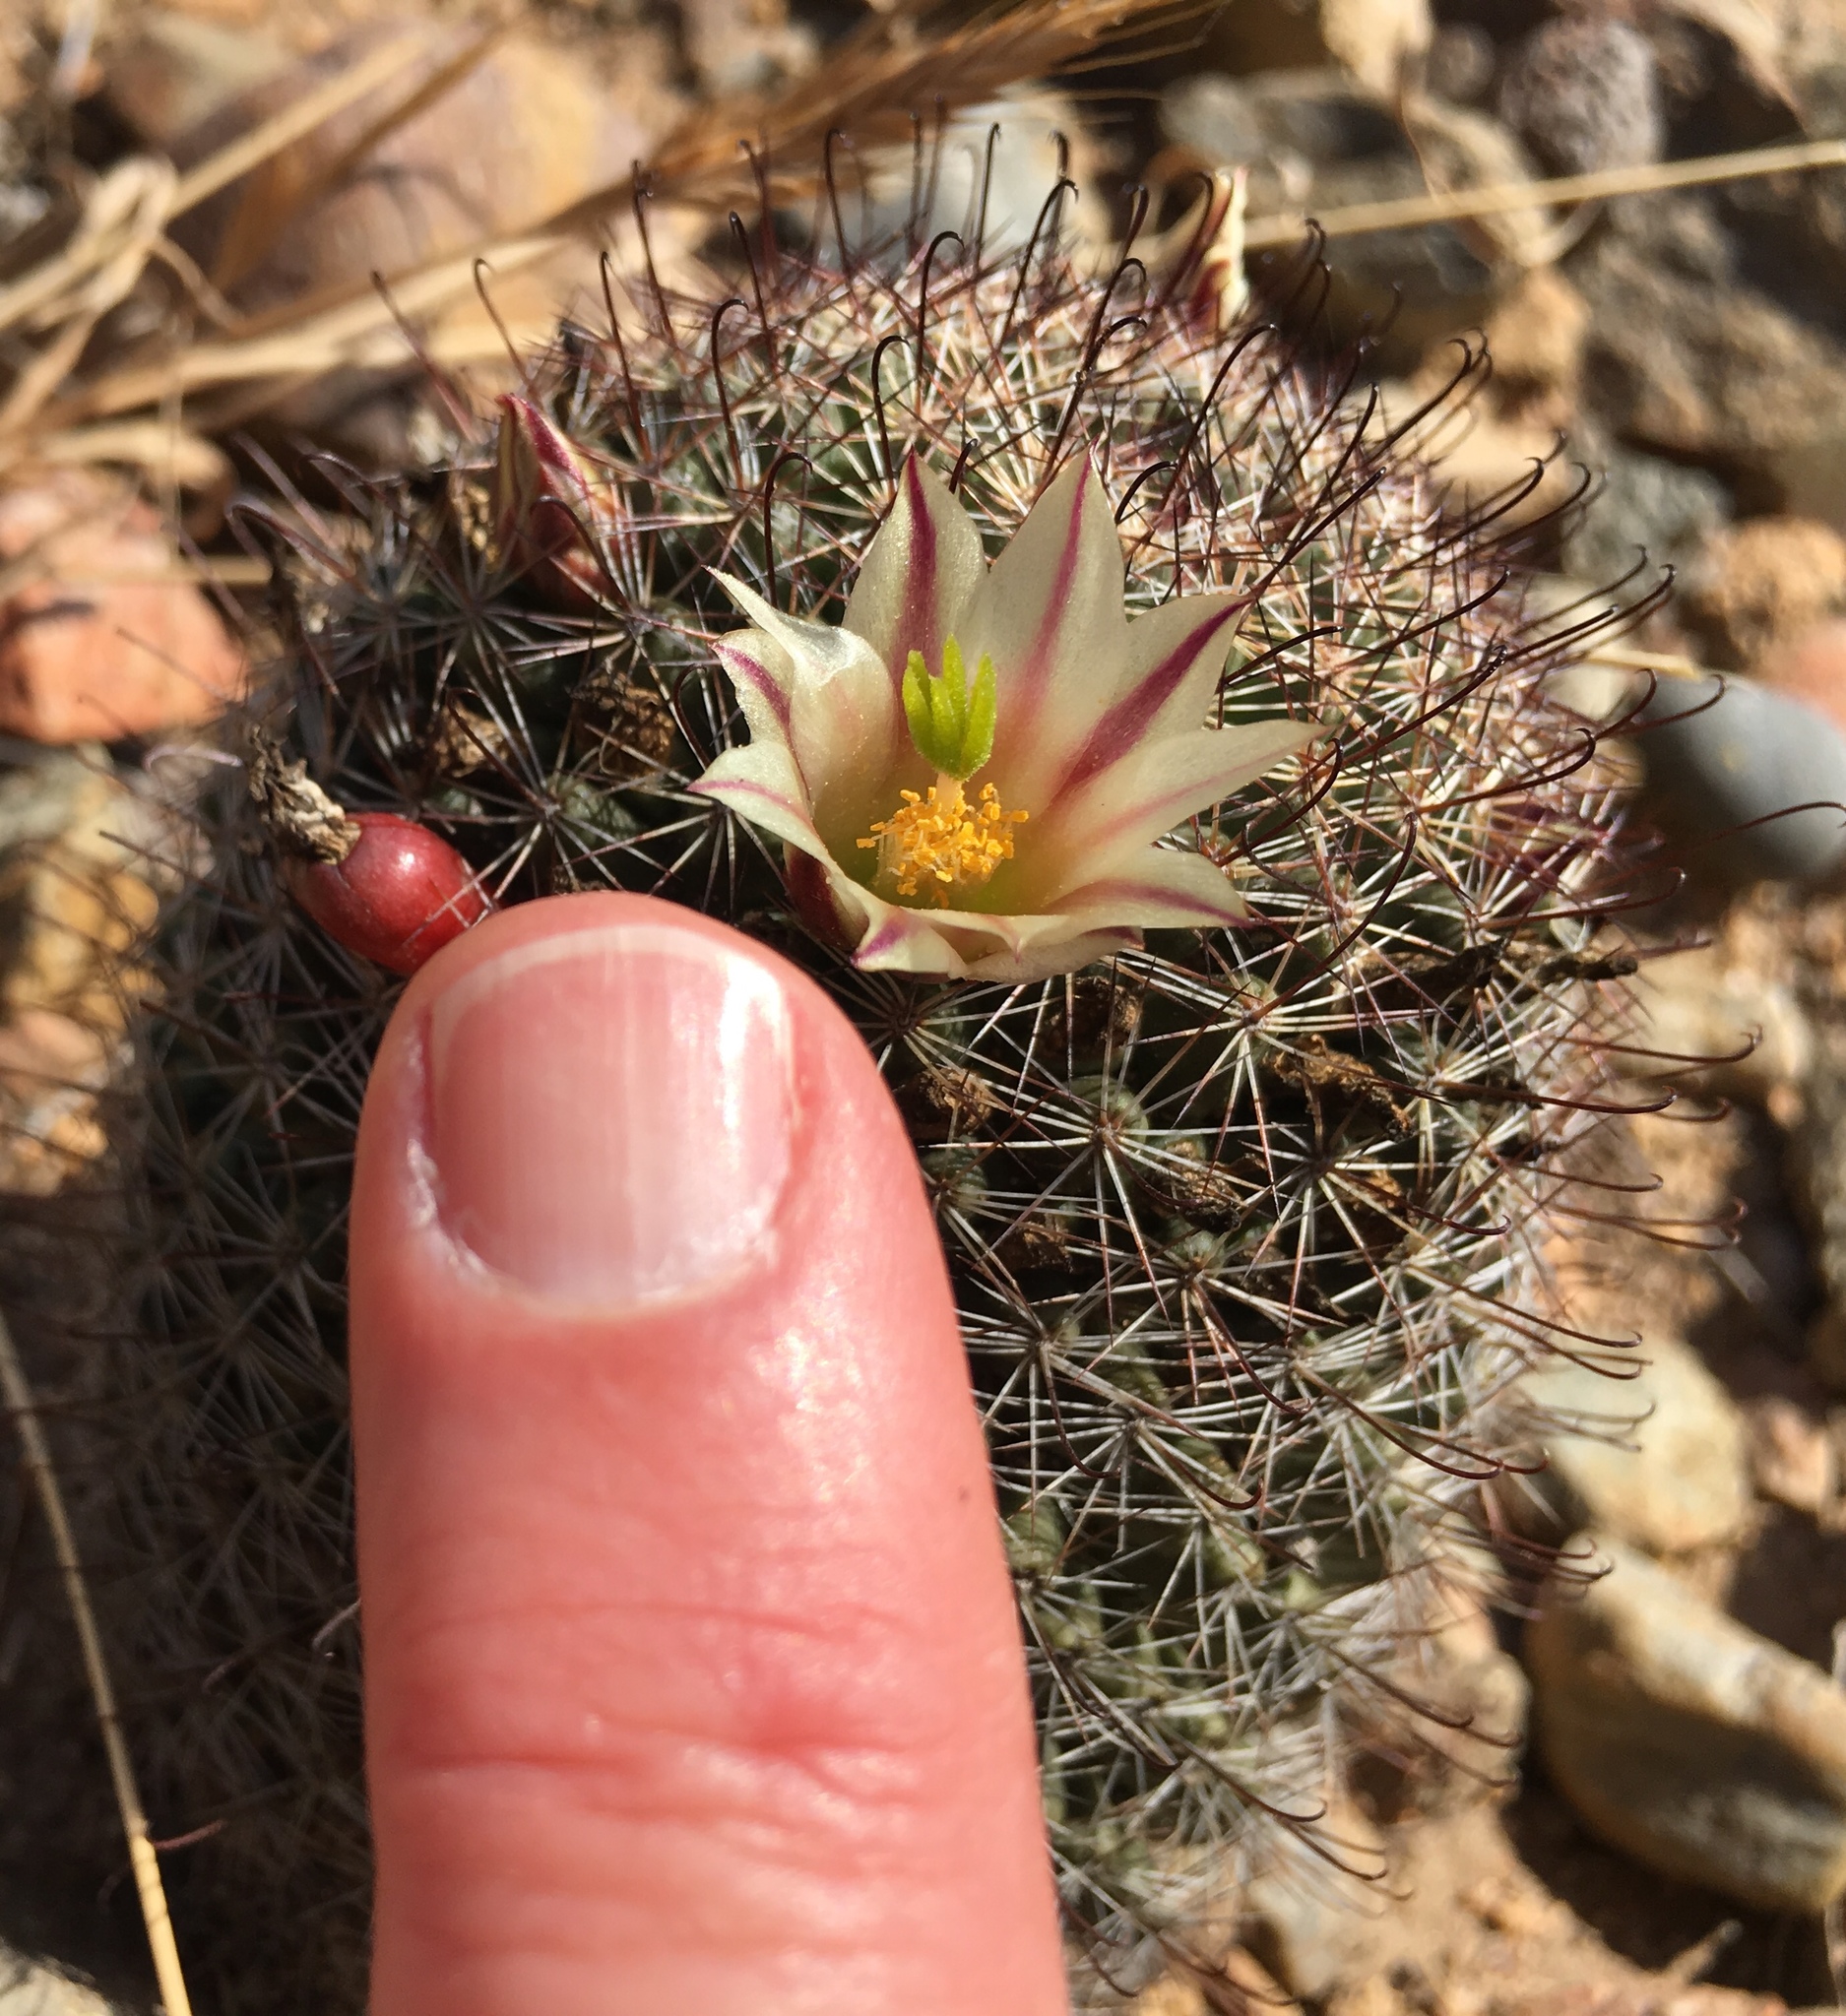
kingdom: Plantae
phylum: Tracheophyta
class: Magnoliopsida
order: Caryophyllales
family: Cactaceae
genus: Cochemiea
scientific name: Cochemiea dioica
